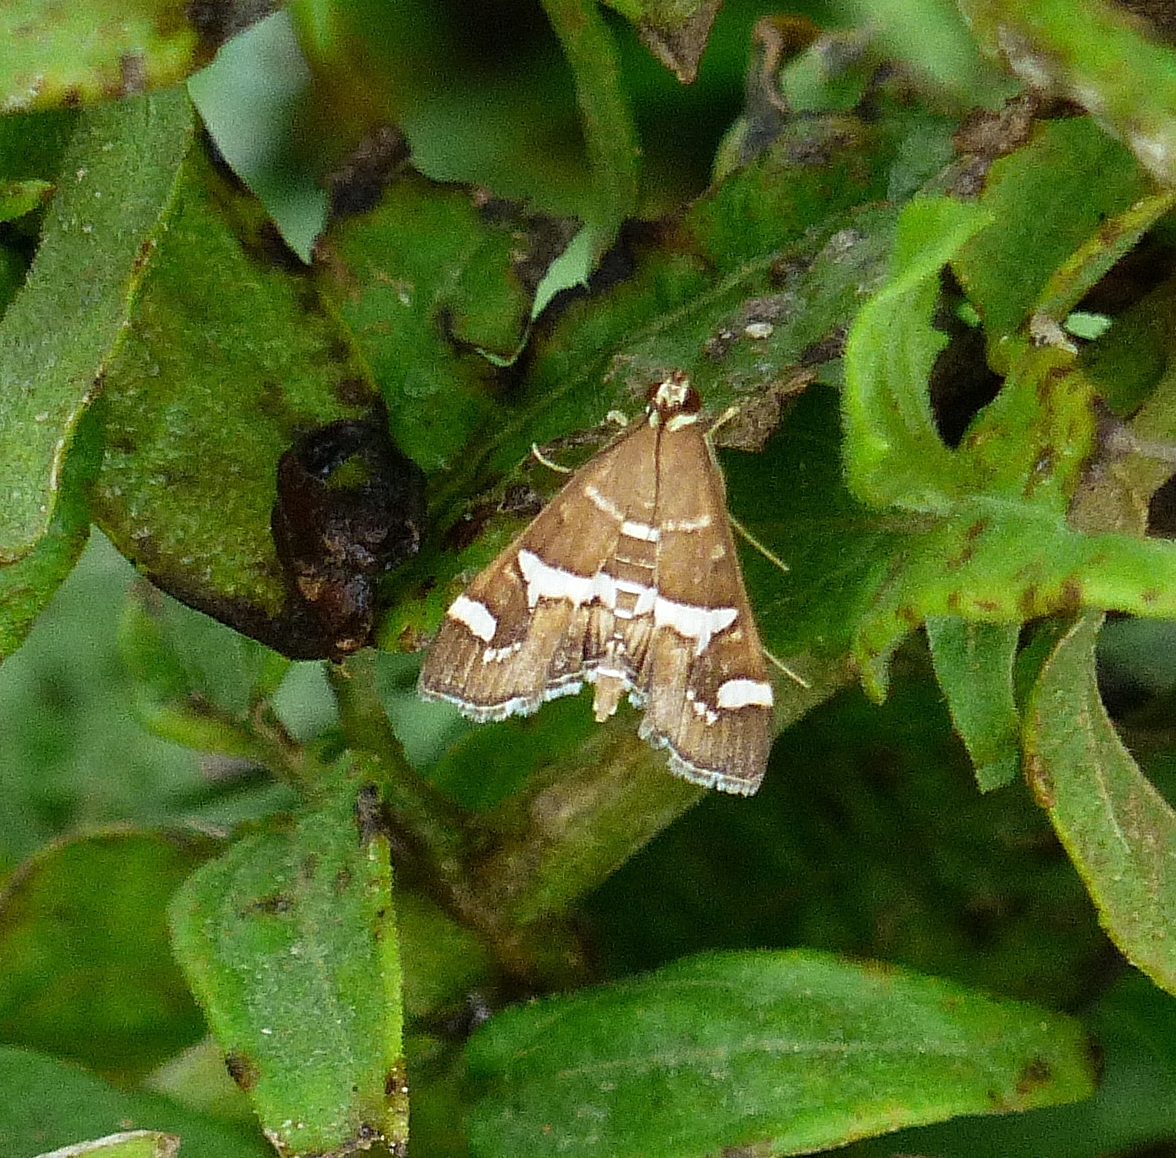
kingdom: Animalia
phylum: Arthropoda
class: Insecta
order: Lepidoptera
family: Crambidae
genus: Spoladea
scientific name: Spoladea recurvalis
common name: Beet webworm moth
